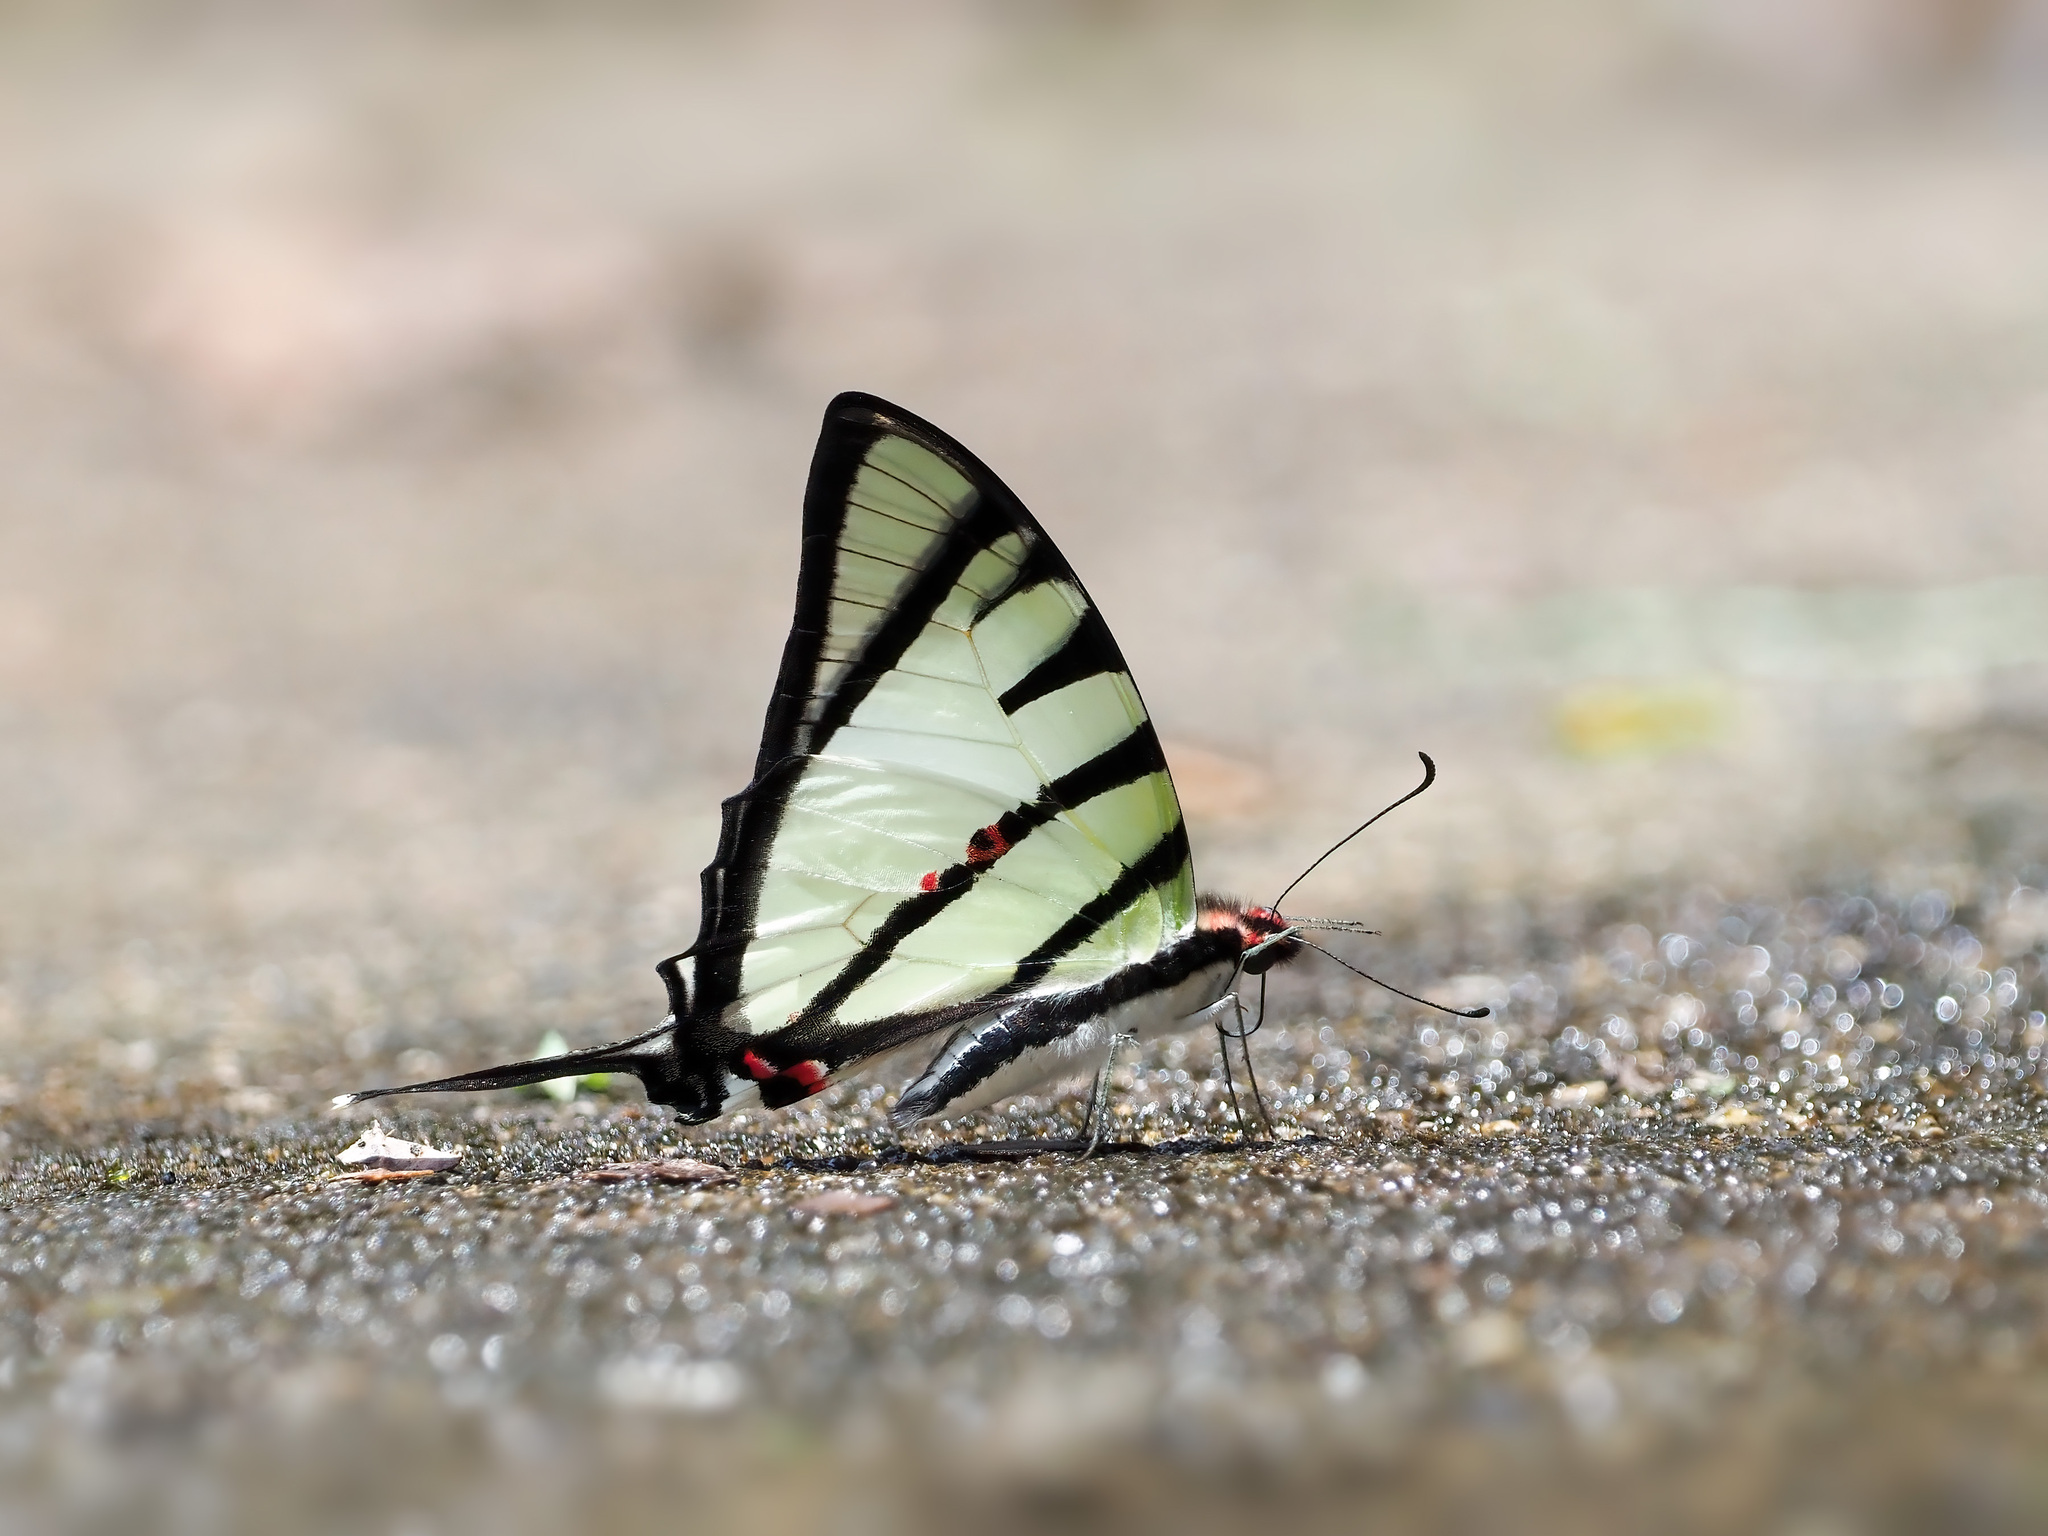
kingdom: Animalia
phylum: Arthropoda
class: Insecta
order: Lepidoptera
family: Papilionidae
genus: Graphium
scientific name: Graphium agetes
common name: Fourbar swordtail
